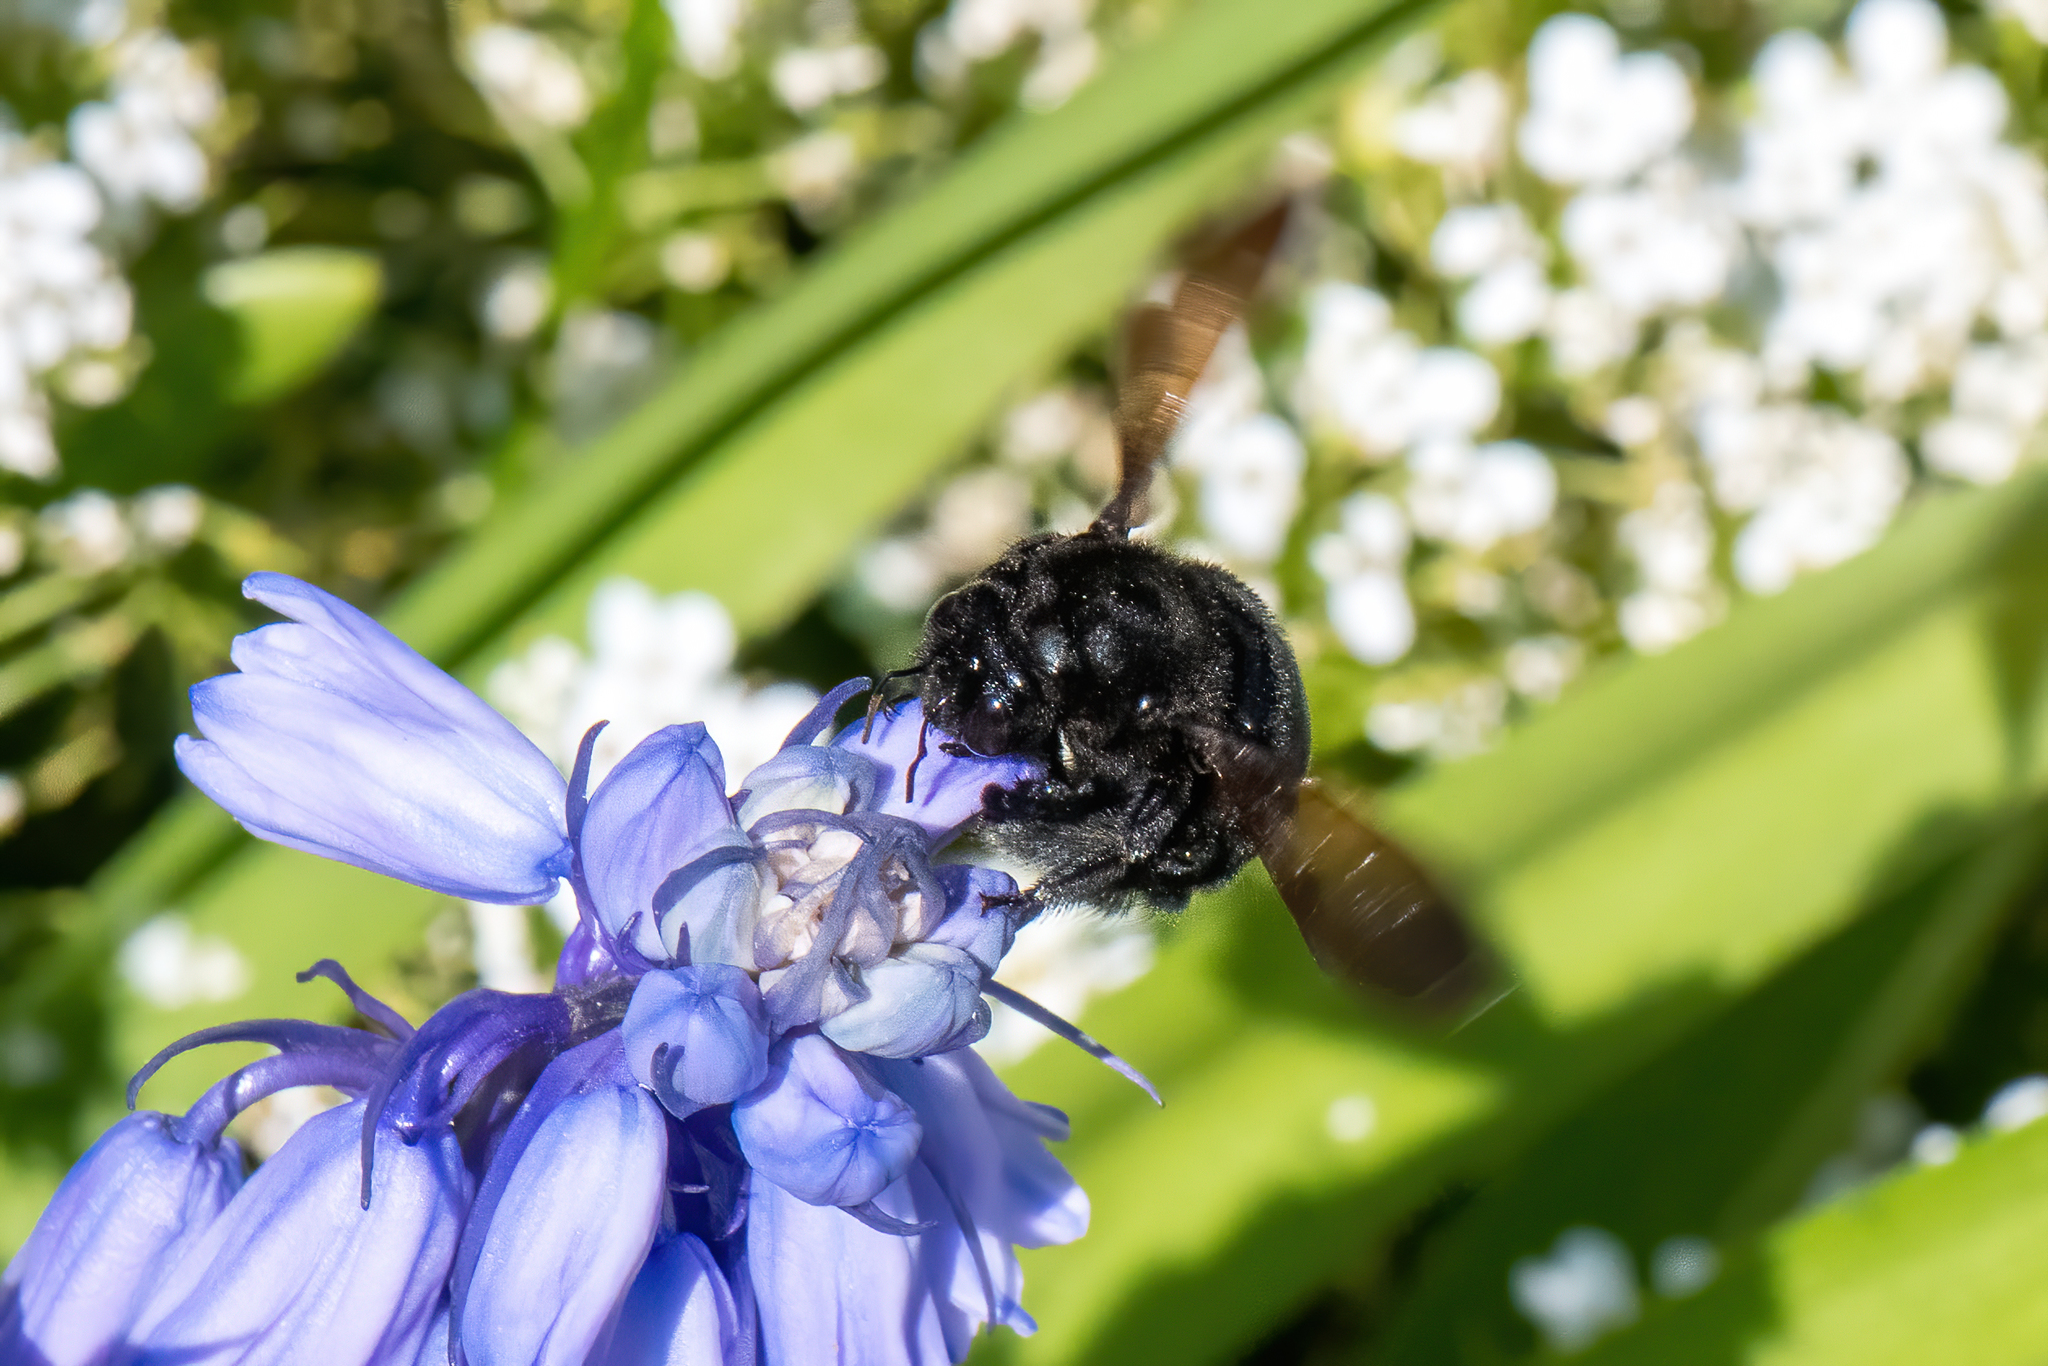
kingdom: Animalia
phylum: Arthropoda
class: Insecta
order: Hymenoptera
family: Apidae
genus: Xylocopa
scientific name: Xylocopa sonorina
